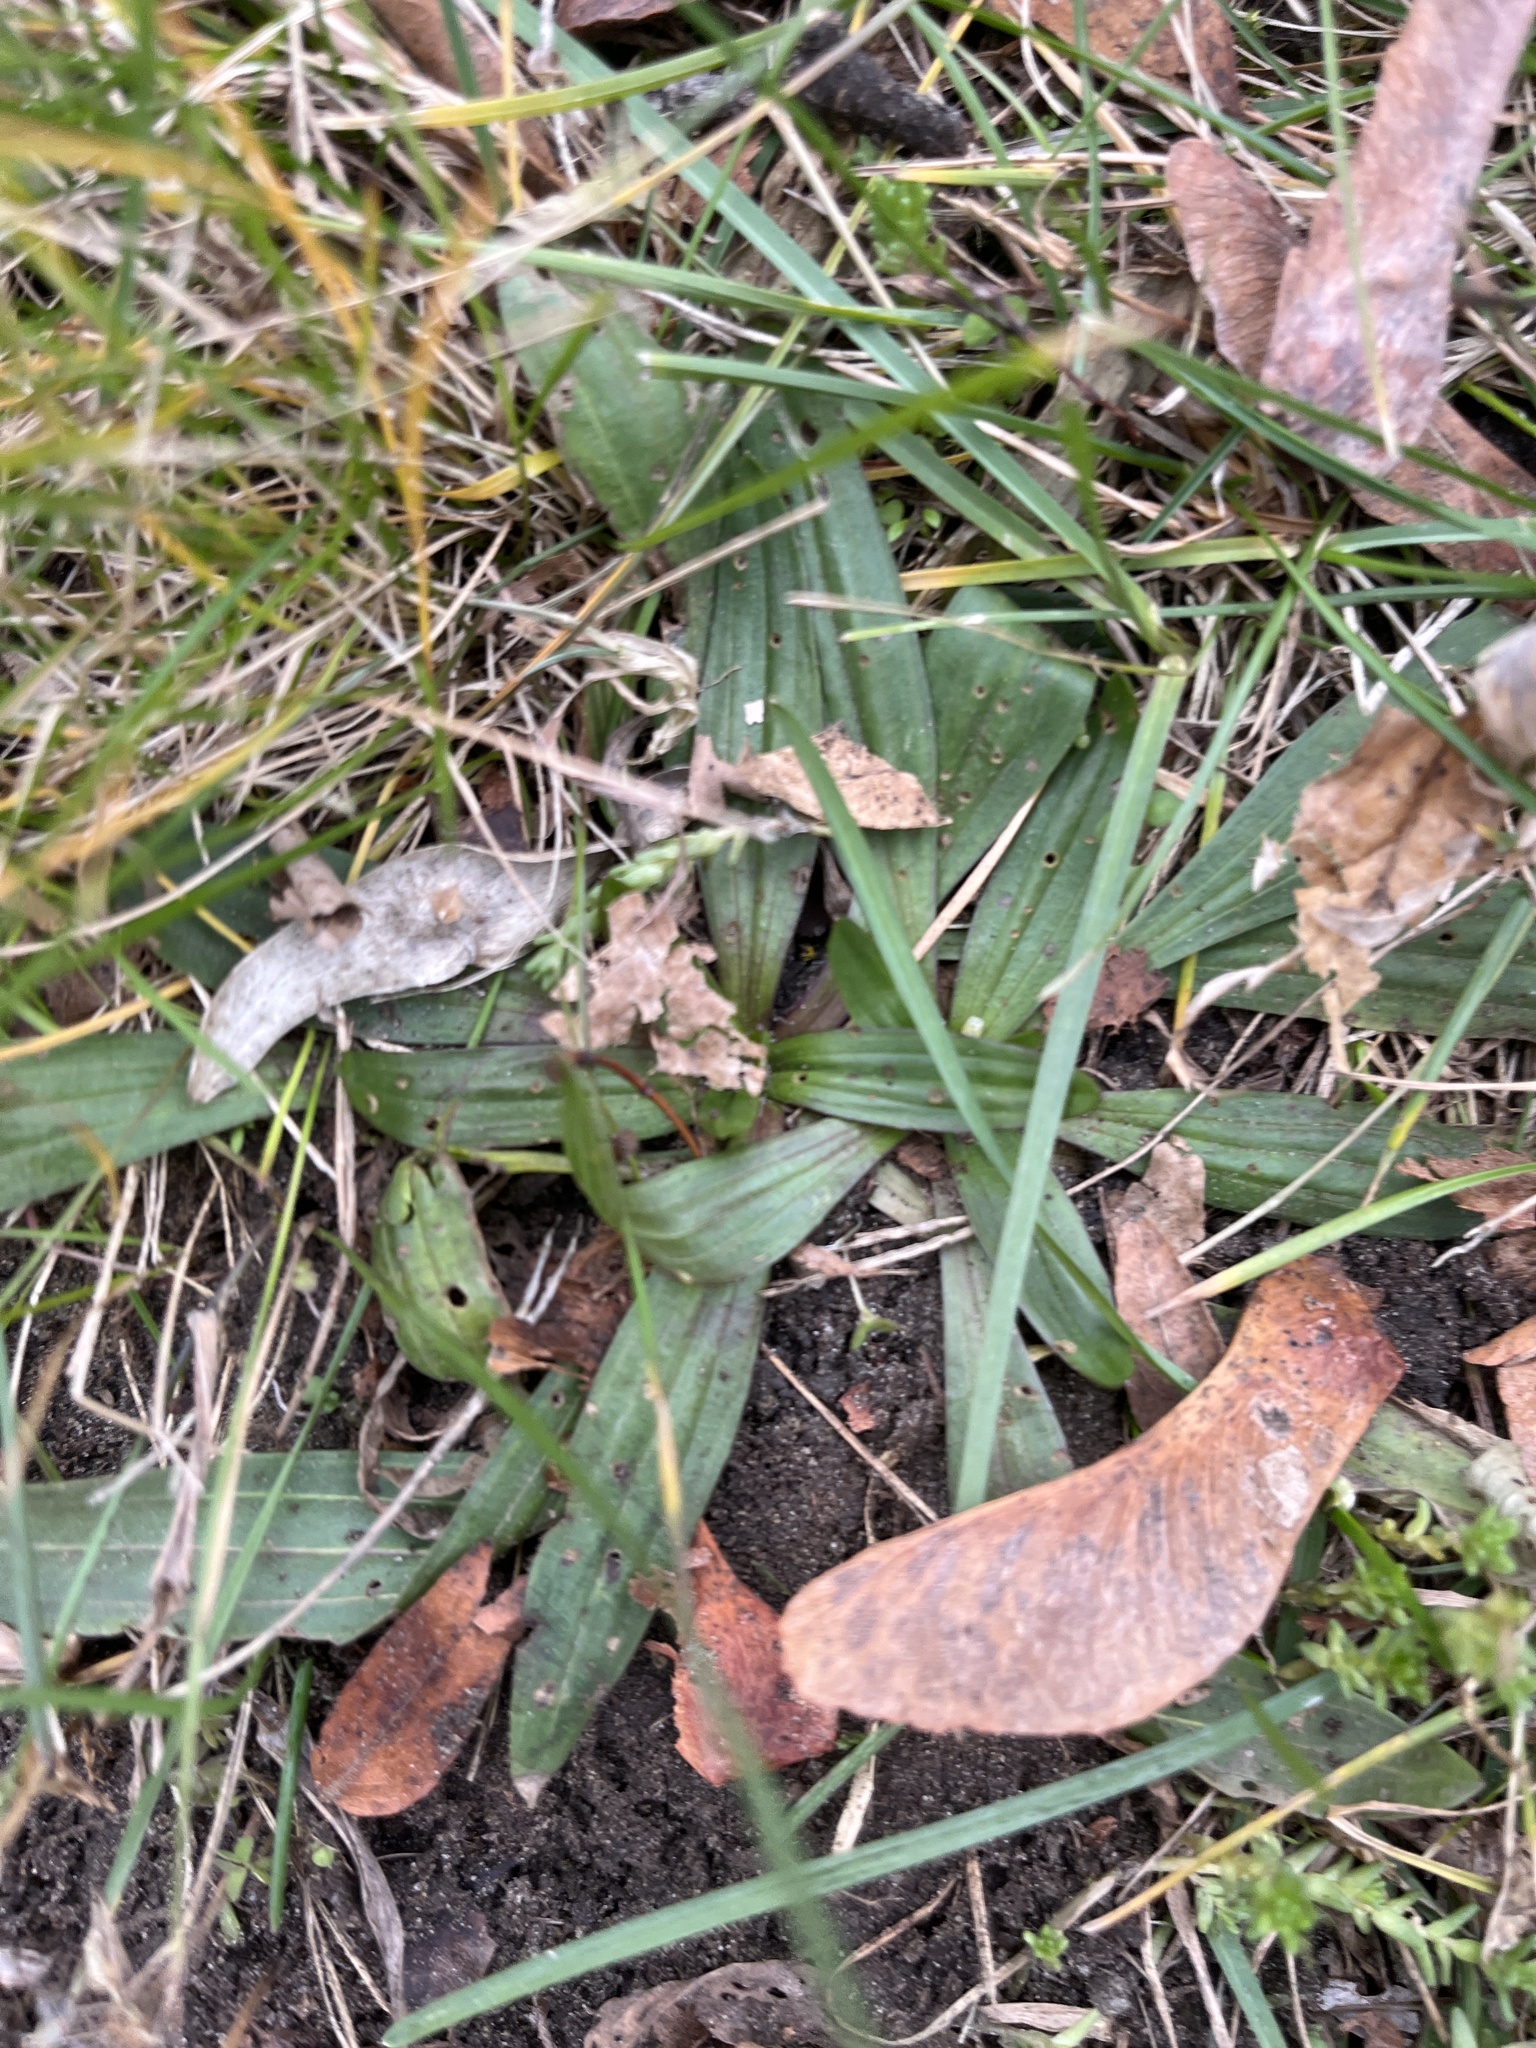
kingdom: Plantae
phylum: Tracheophyta
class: Magnoliopsida
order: Lamiales
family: Plantaginaceae
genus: Plantago
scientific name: Plantago lanceolata
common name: Ribwort plantain
